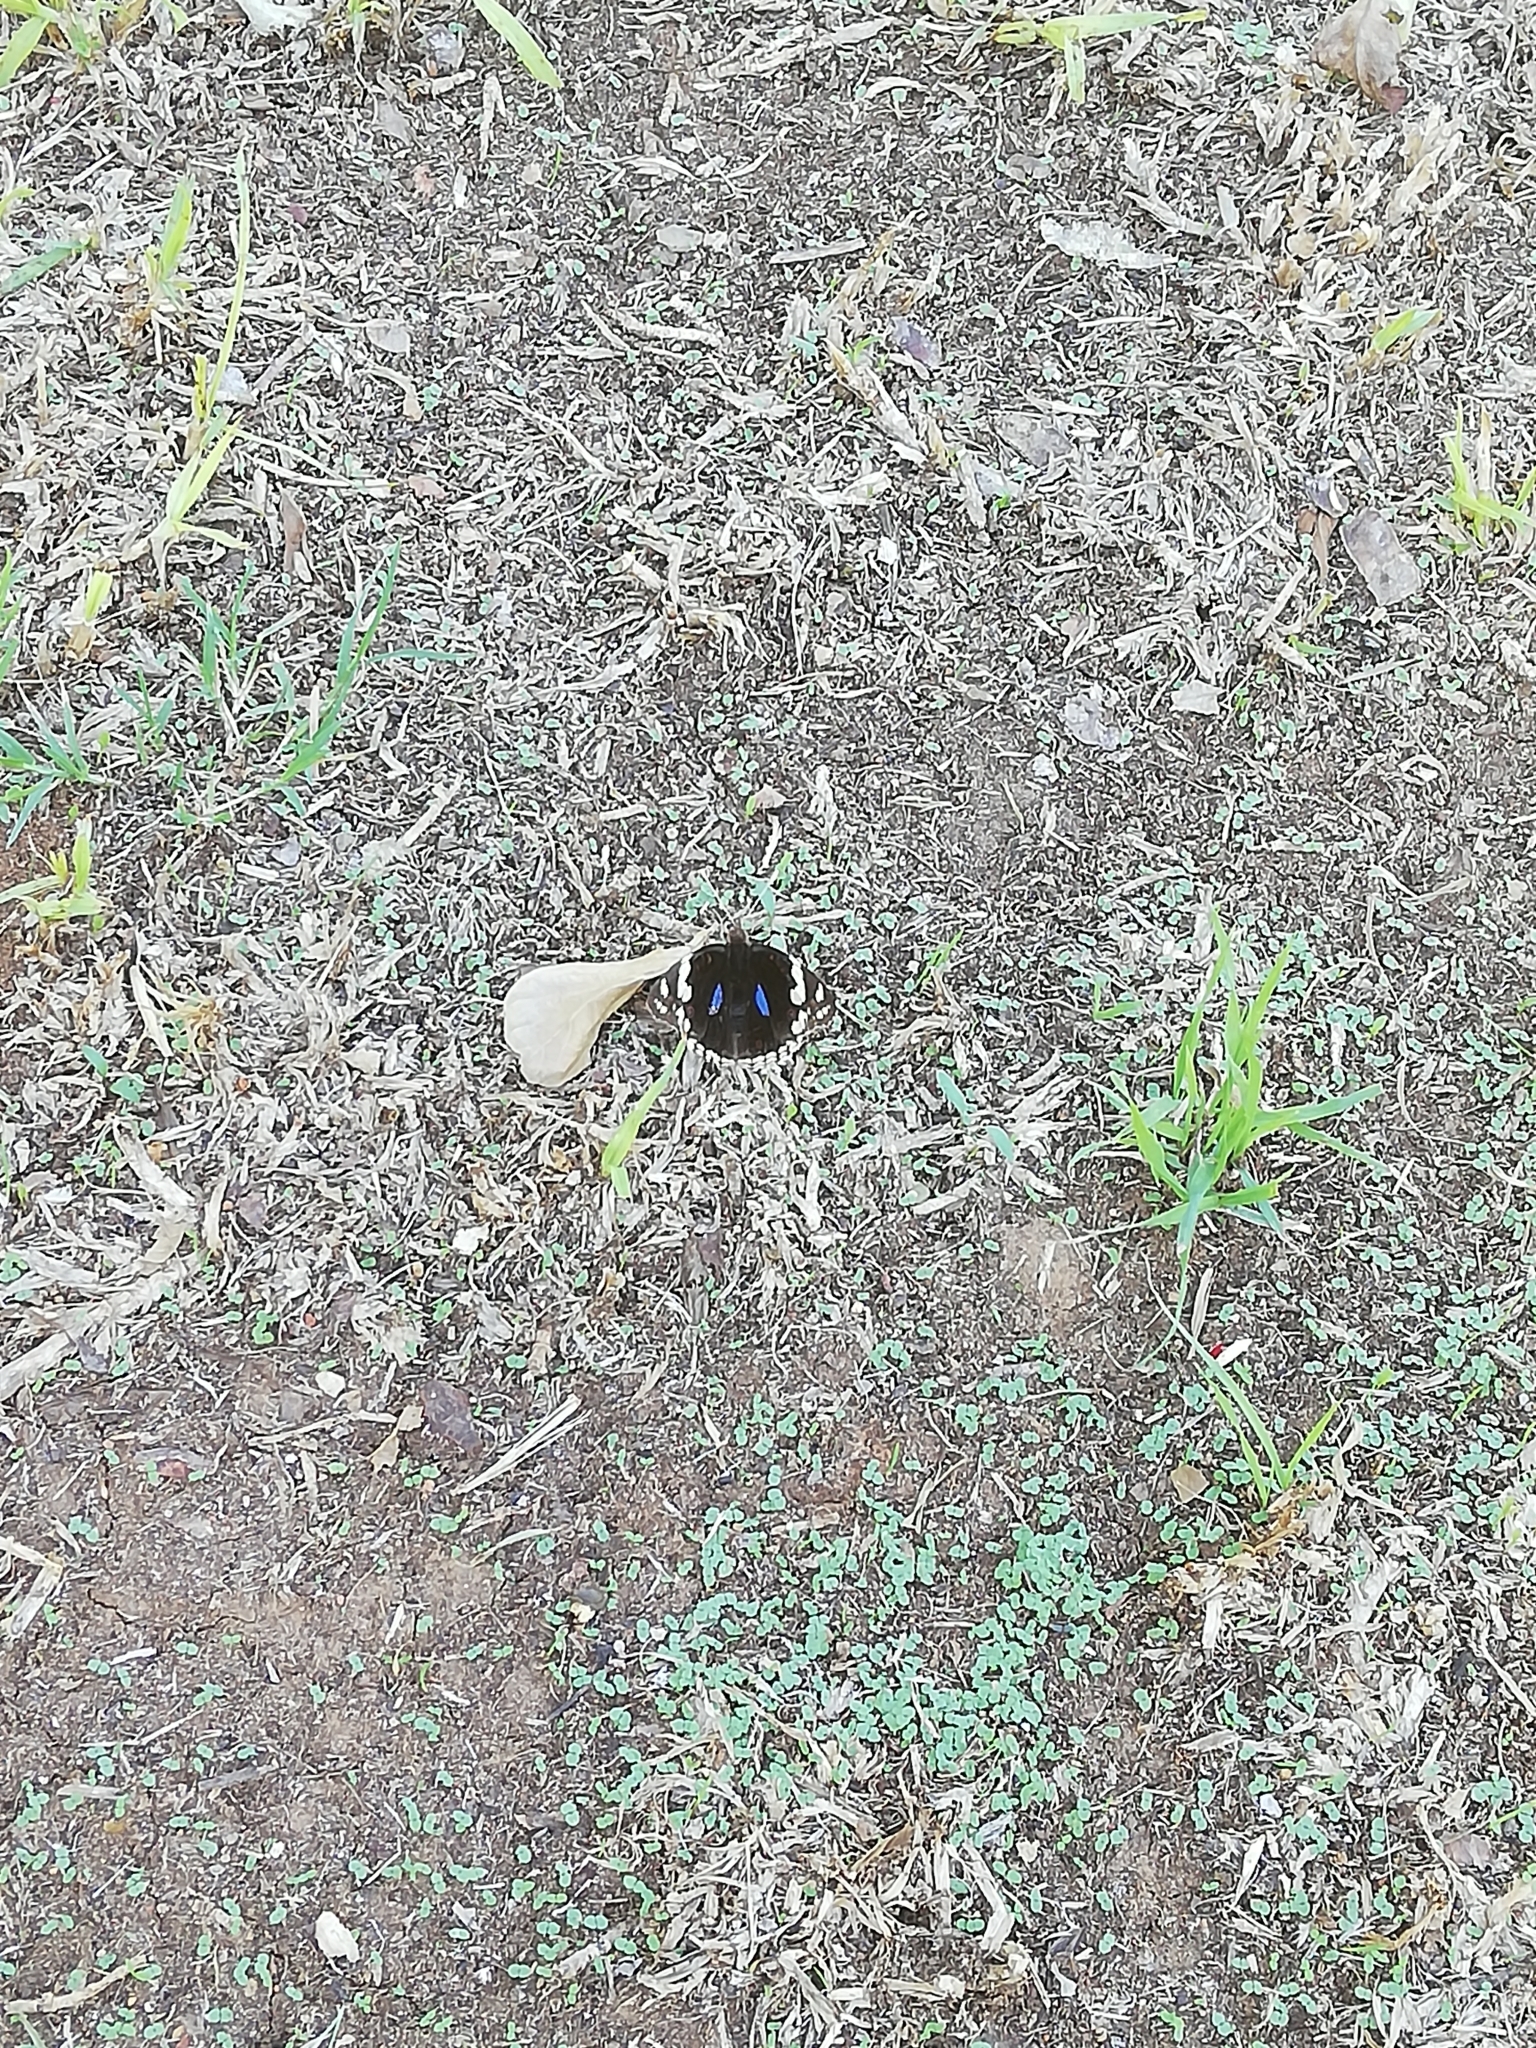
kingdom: Animalia
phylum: Arthropoda
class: Insecta
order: Lepidoptera
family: Nymphalidae
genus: Junonia
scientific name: Junonia oenone
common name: Dark blue pansy
